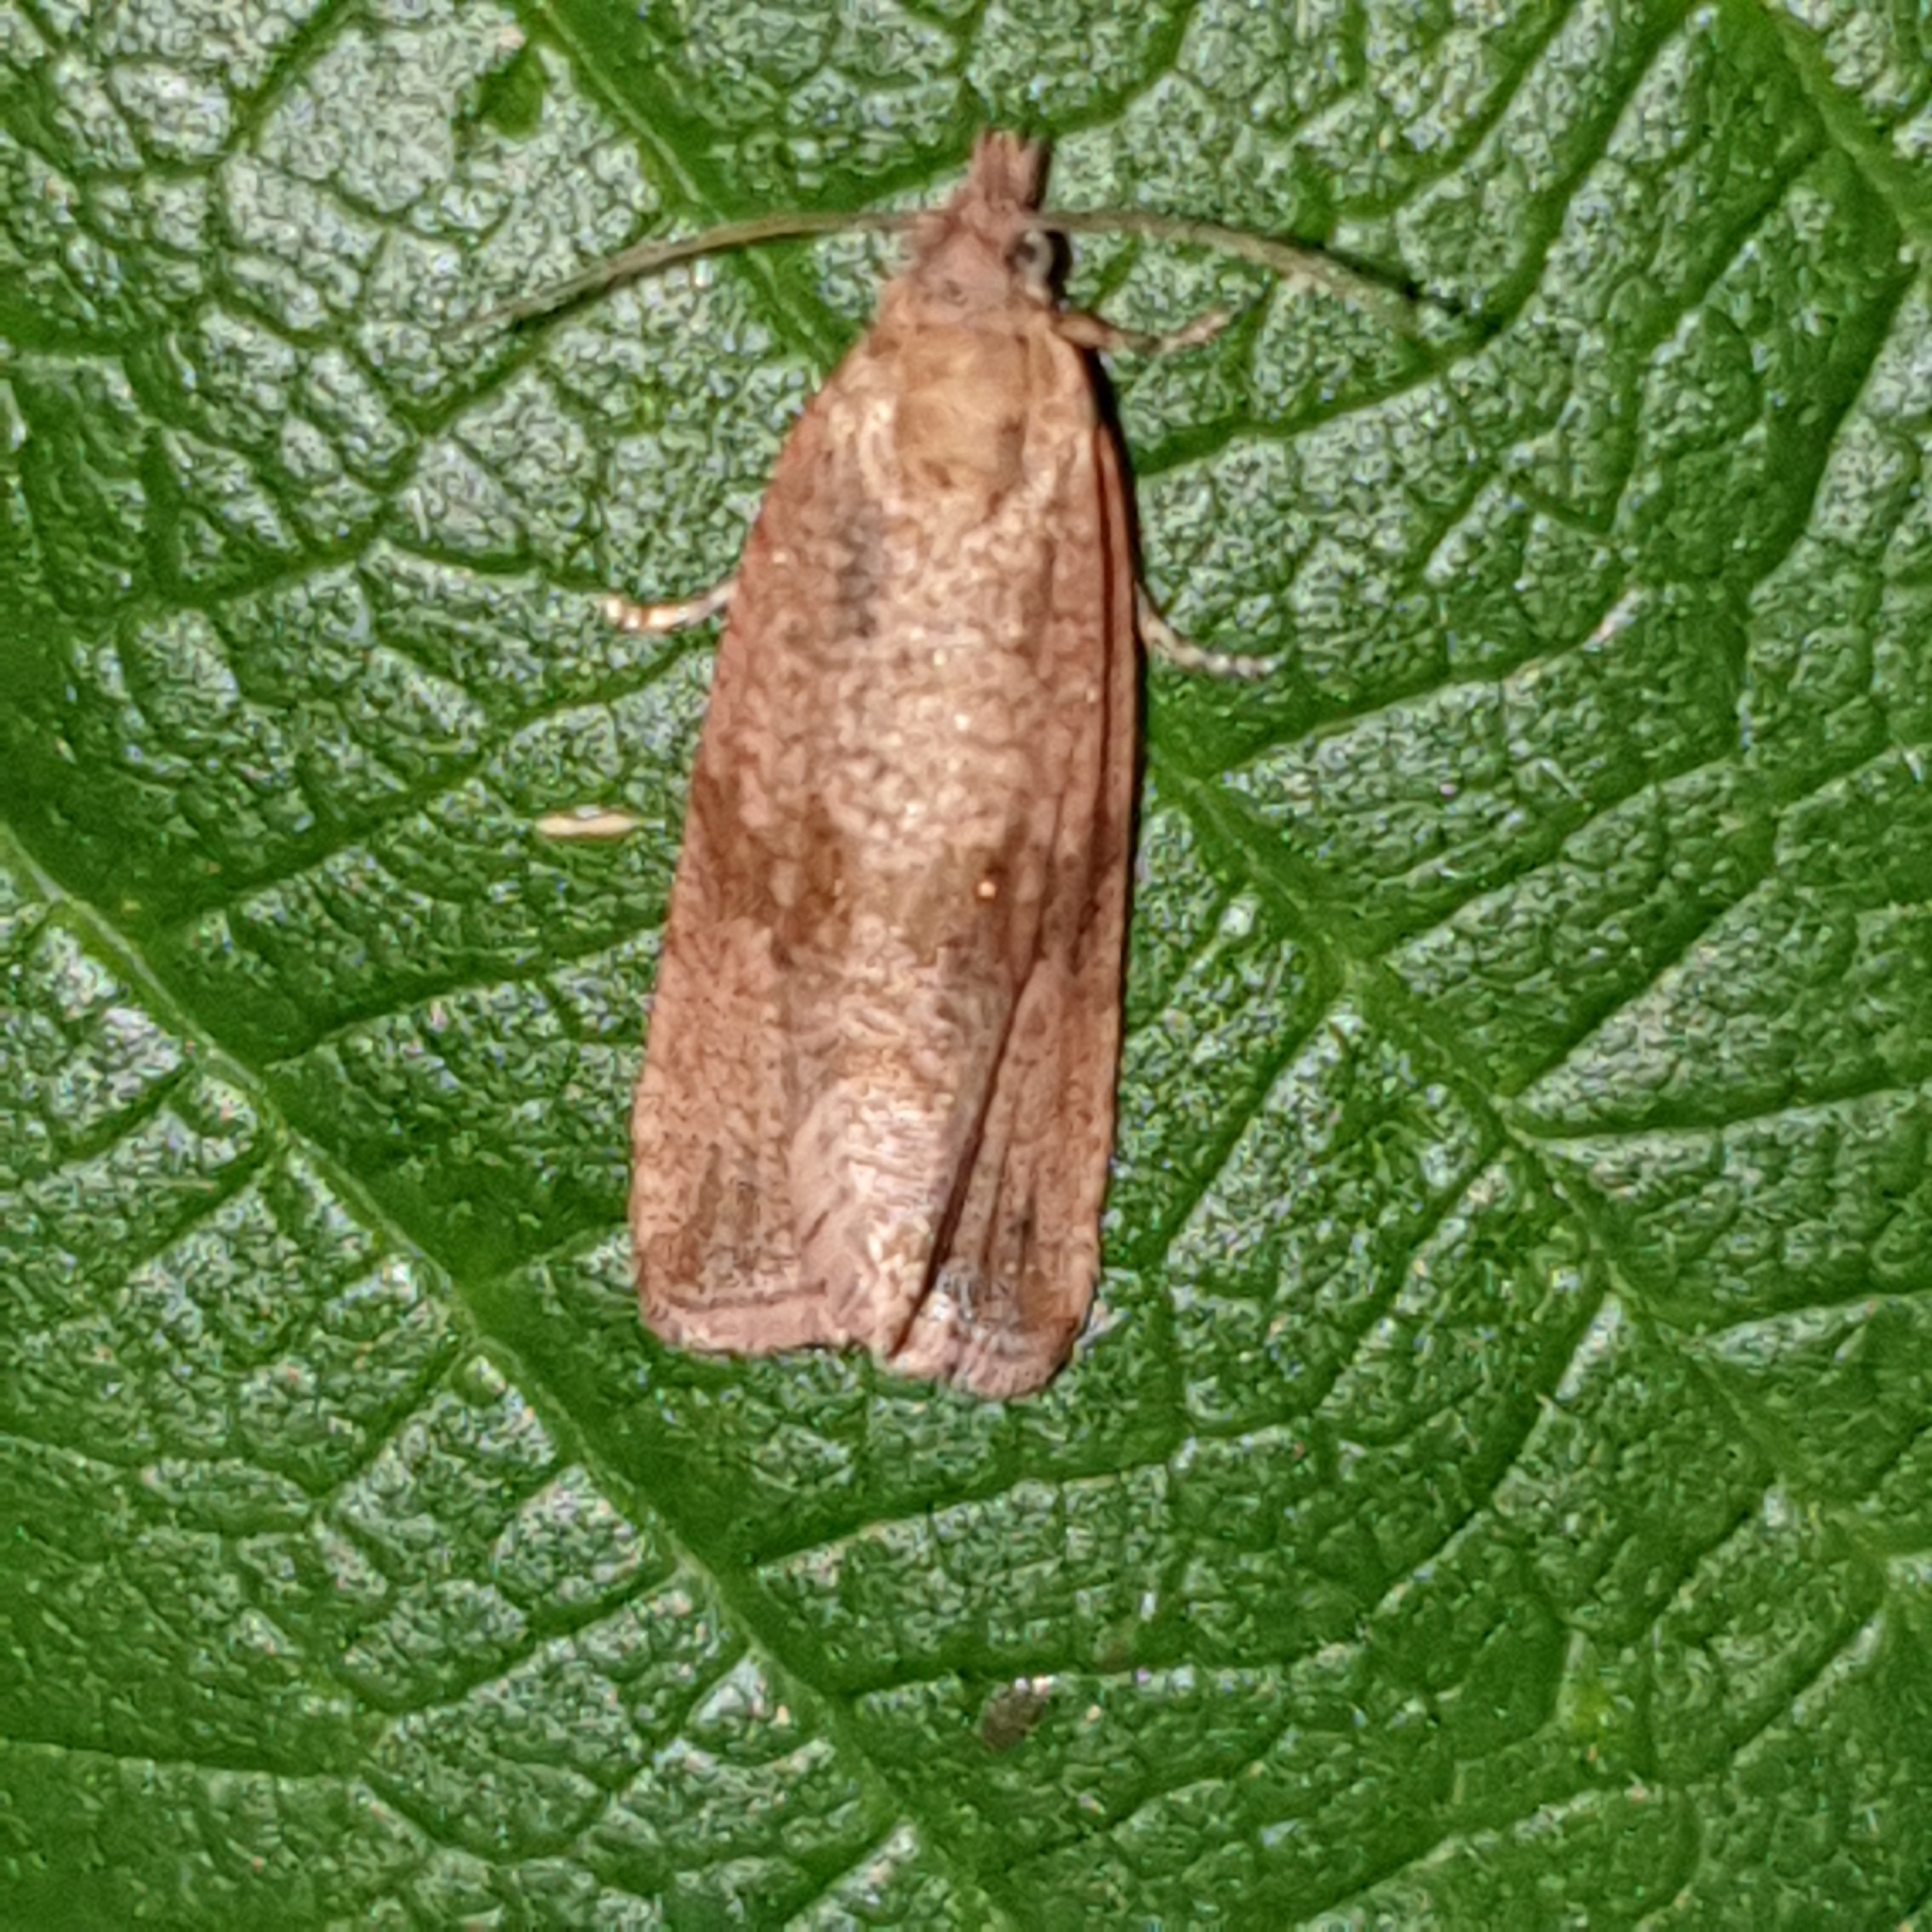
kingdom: Animalia
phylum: Arthropoda
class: Insecta
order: Lepidoptera
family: Tortricidae
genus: Celypha
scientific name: Celypha striana
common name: Barred marble
